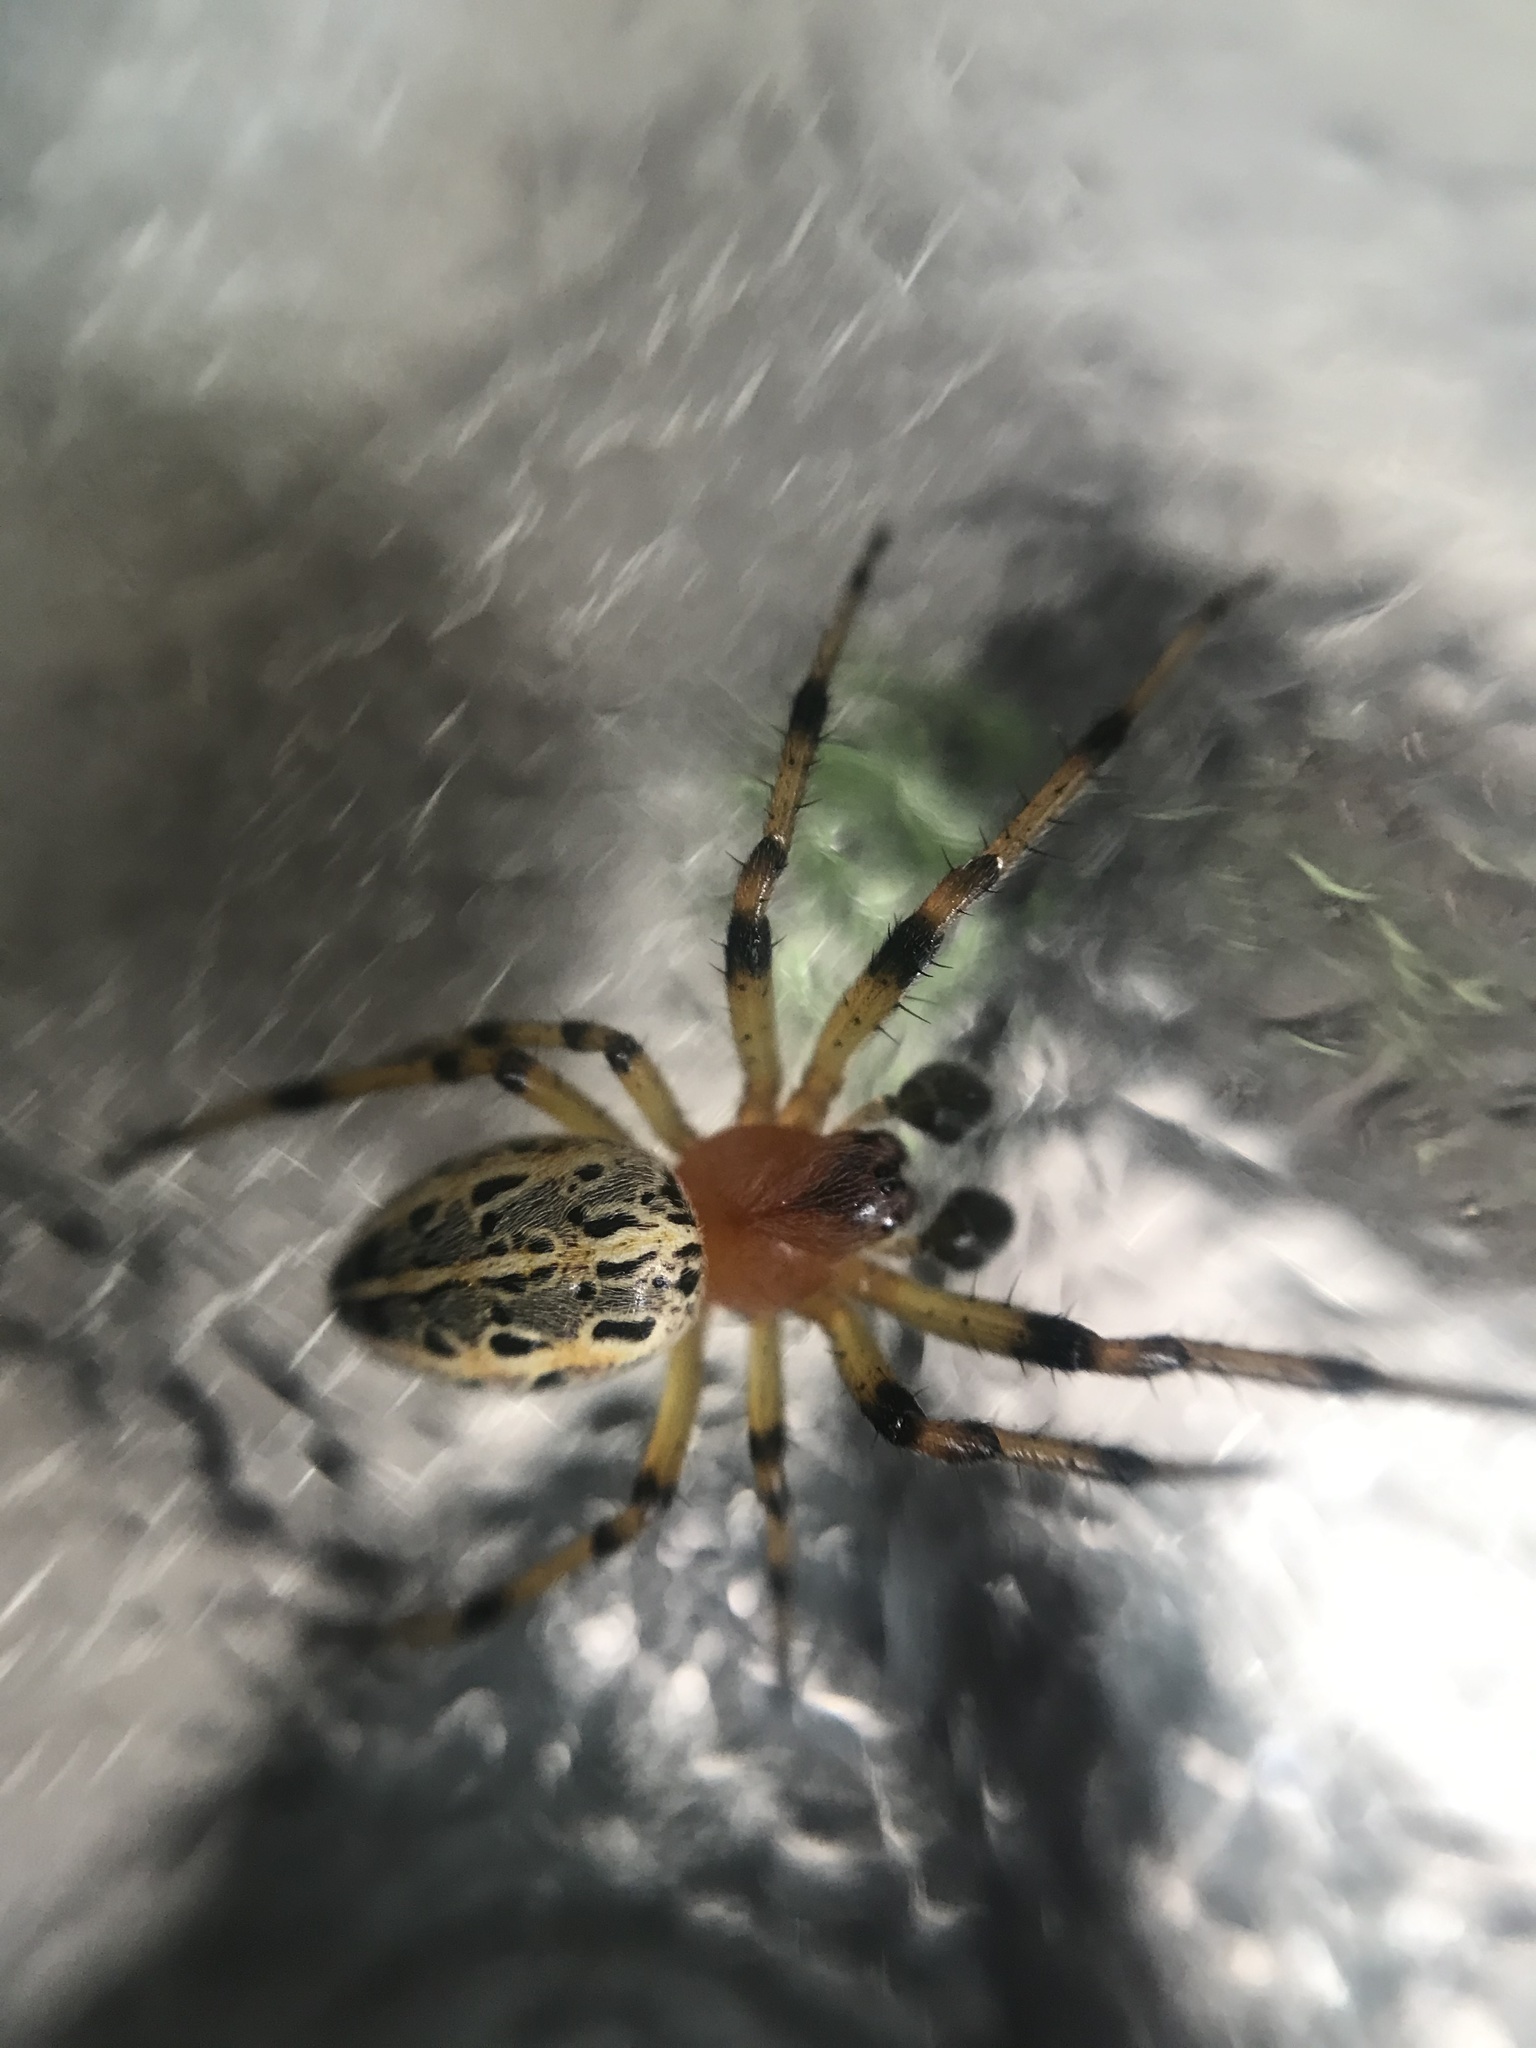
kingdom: Animalia
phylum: Arthropoda
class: Arachnida
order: Araneae
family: Araneidae
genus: Alpaida
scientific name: Alpaida veniliae
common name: Orb weavers
